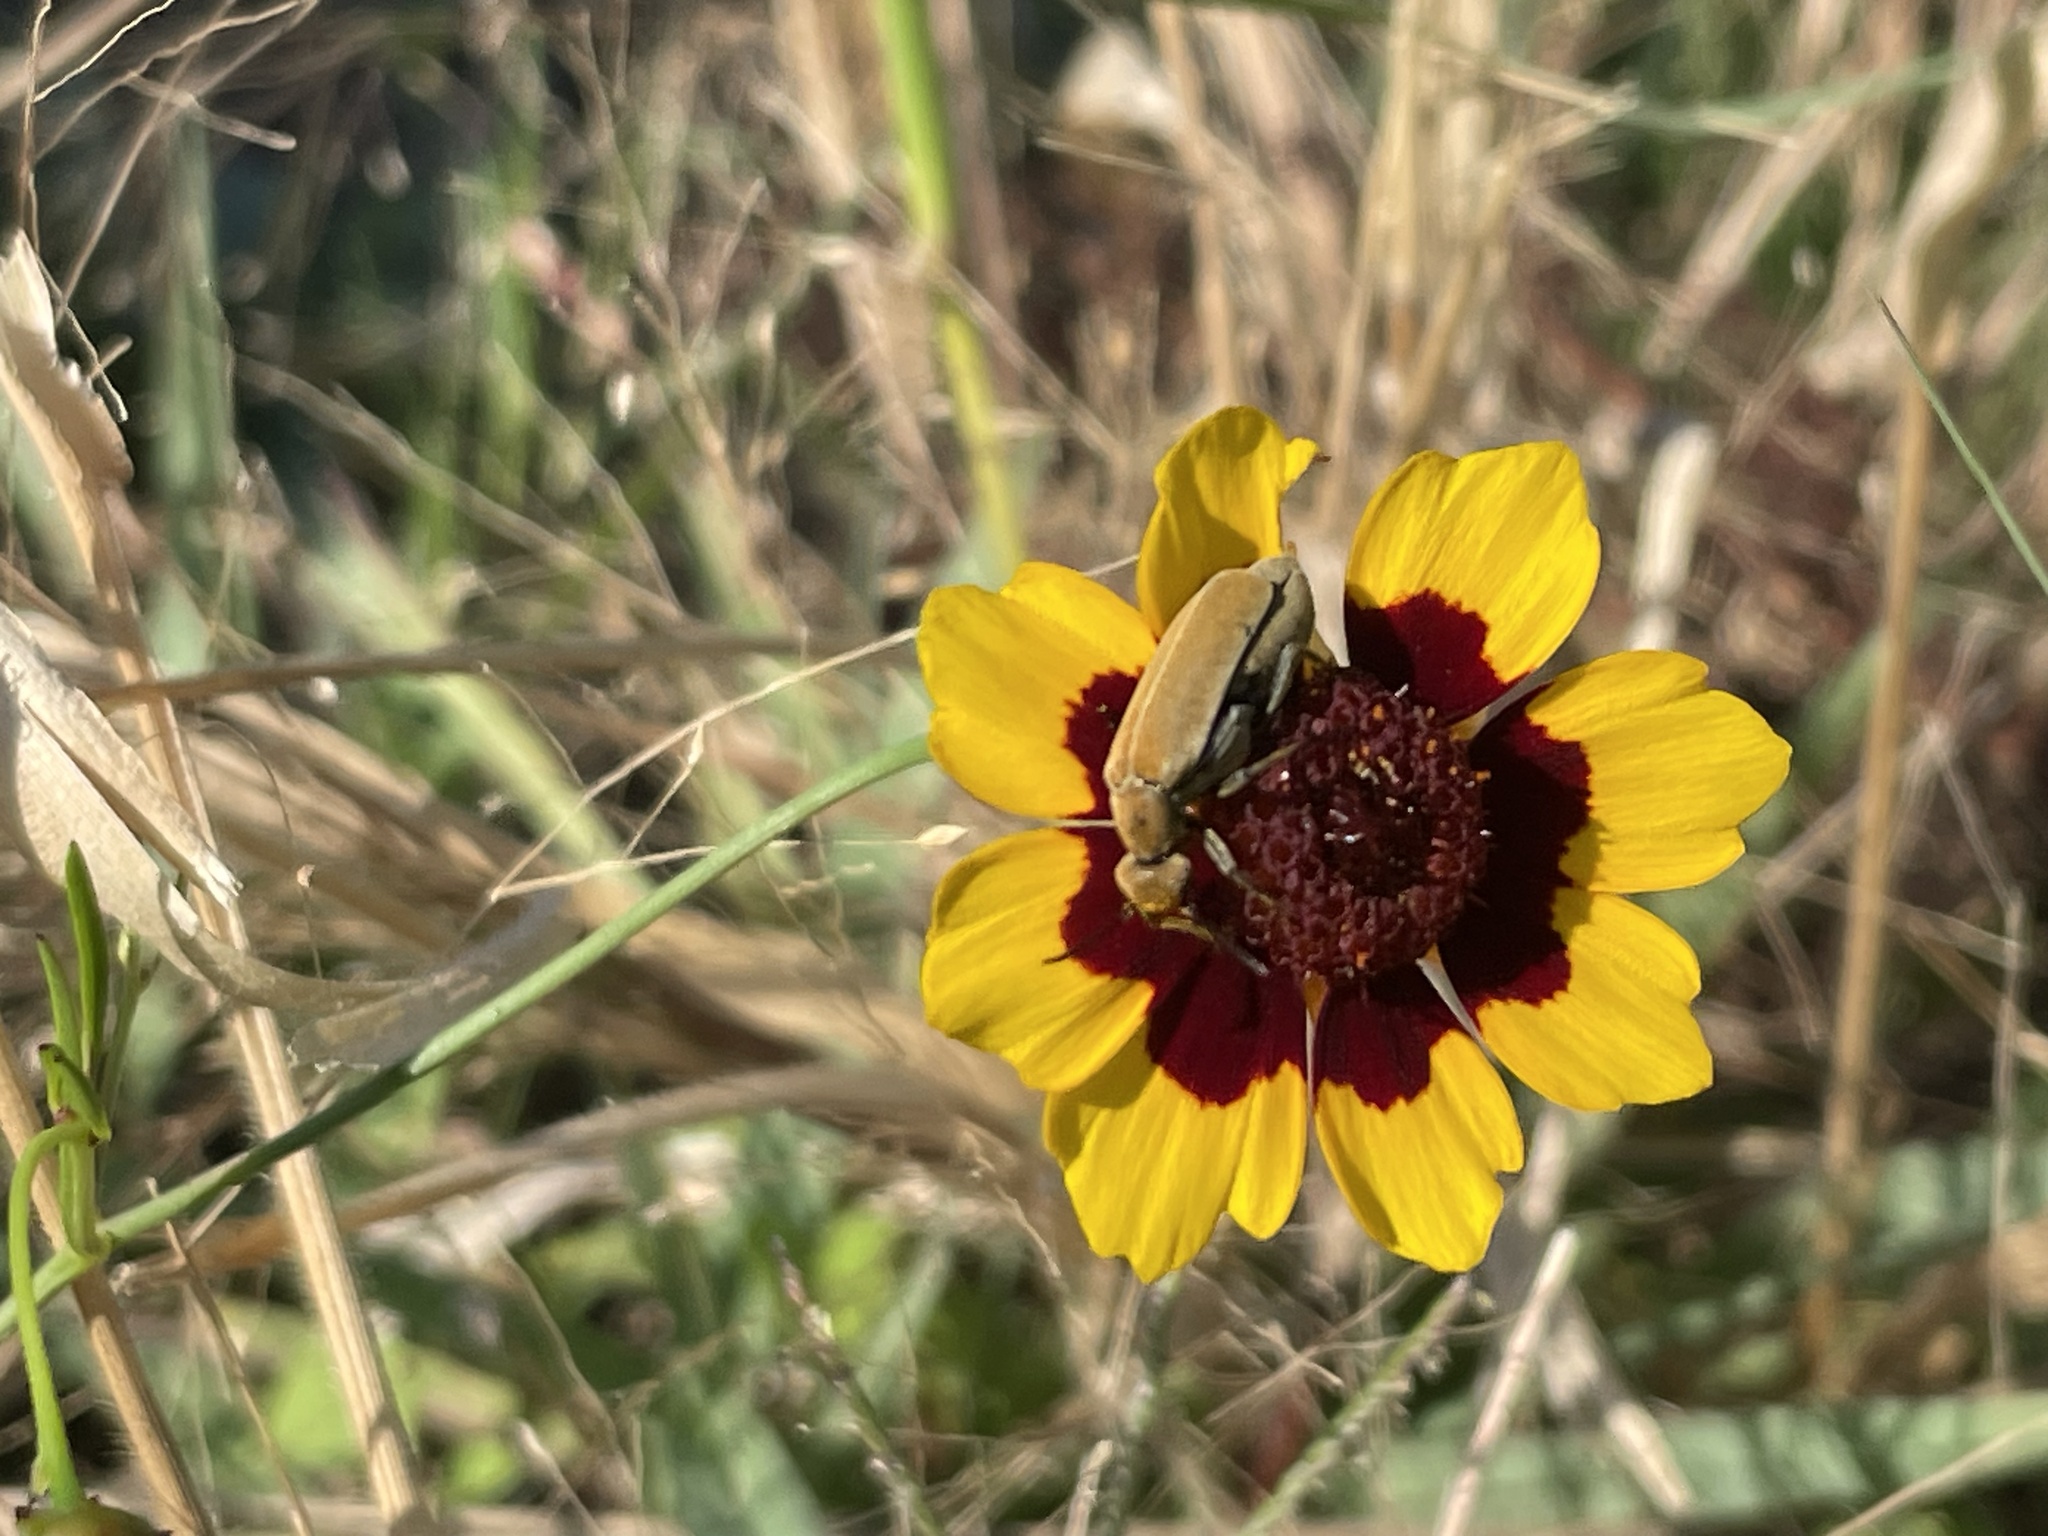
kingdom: Animalia
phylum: Arthropoda
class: Insecta
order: Coleoptera
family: Meloidae
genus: Epicauta
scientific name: Epicauta callosa
